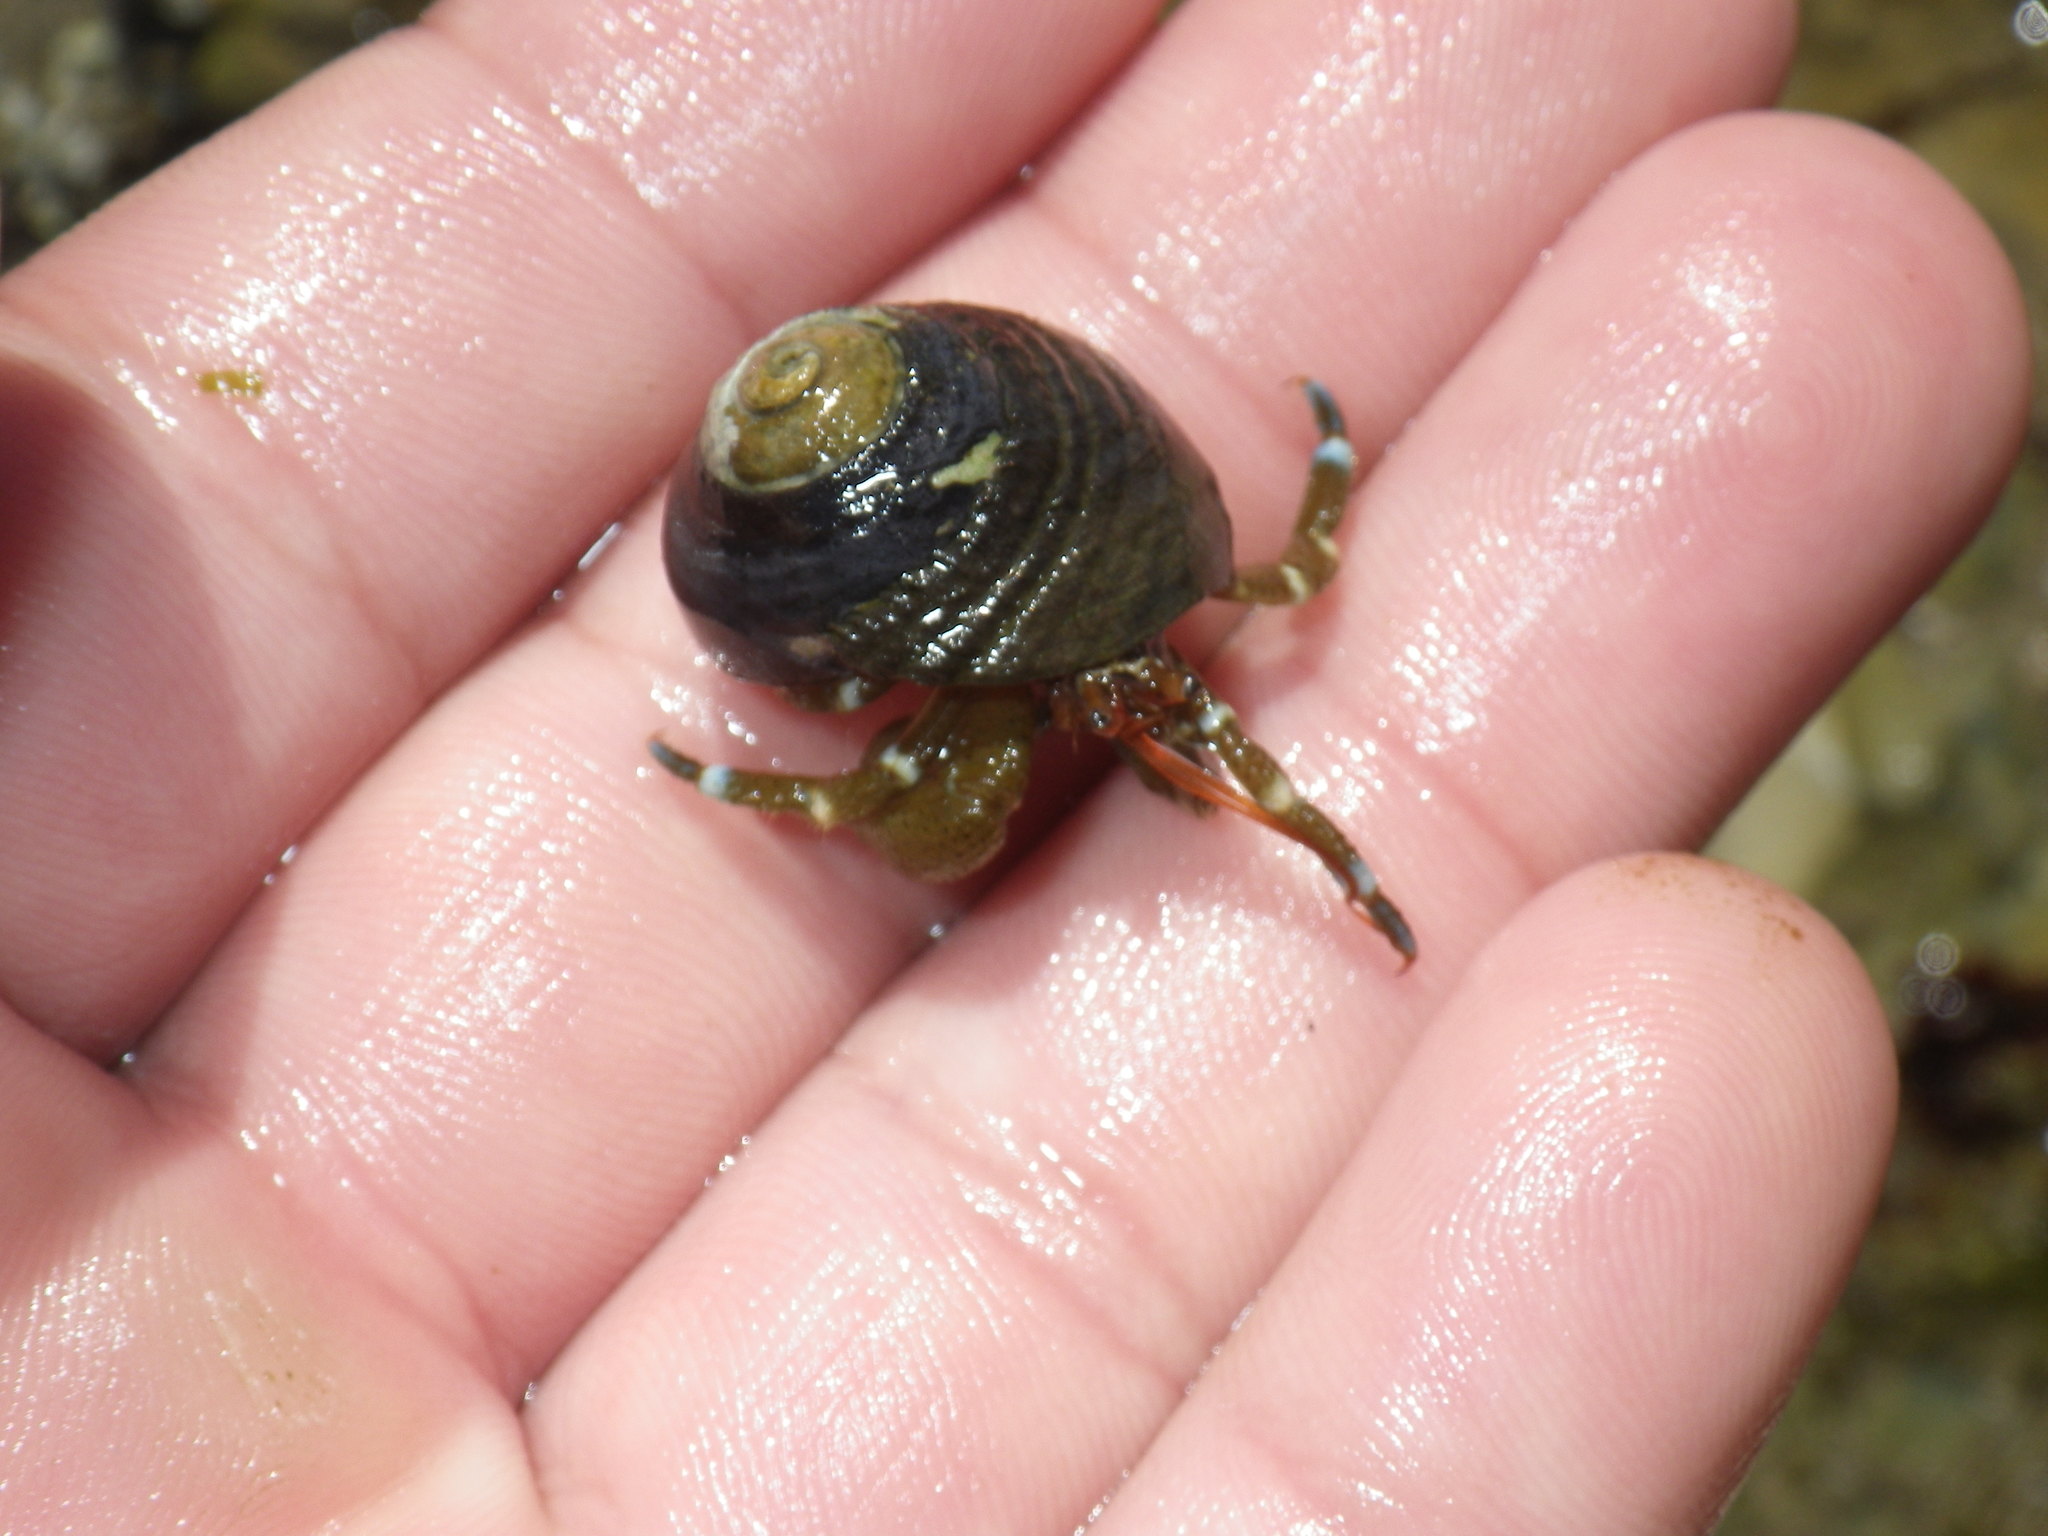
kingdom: Animalia
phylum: Arthropoda
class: Malacostraca
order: Decapoda
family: Paguridae
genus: Pagurus
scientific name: Pagurus samuelis
